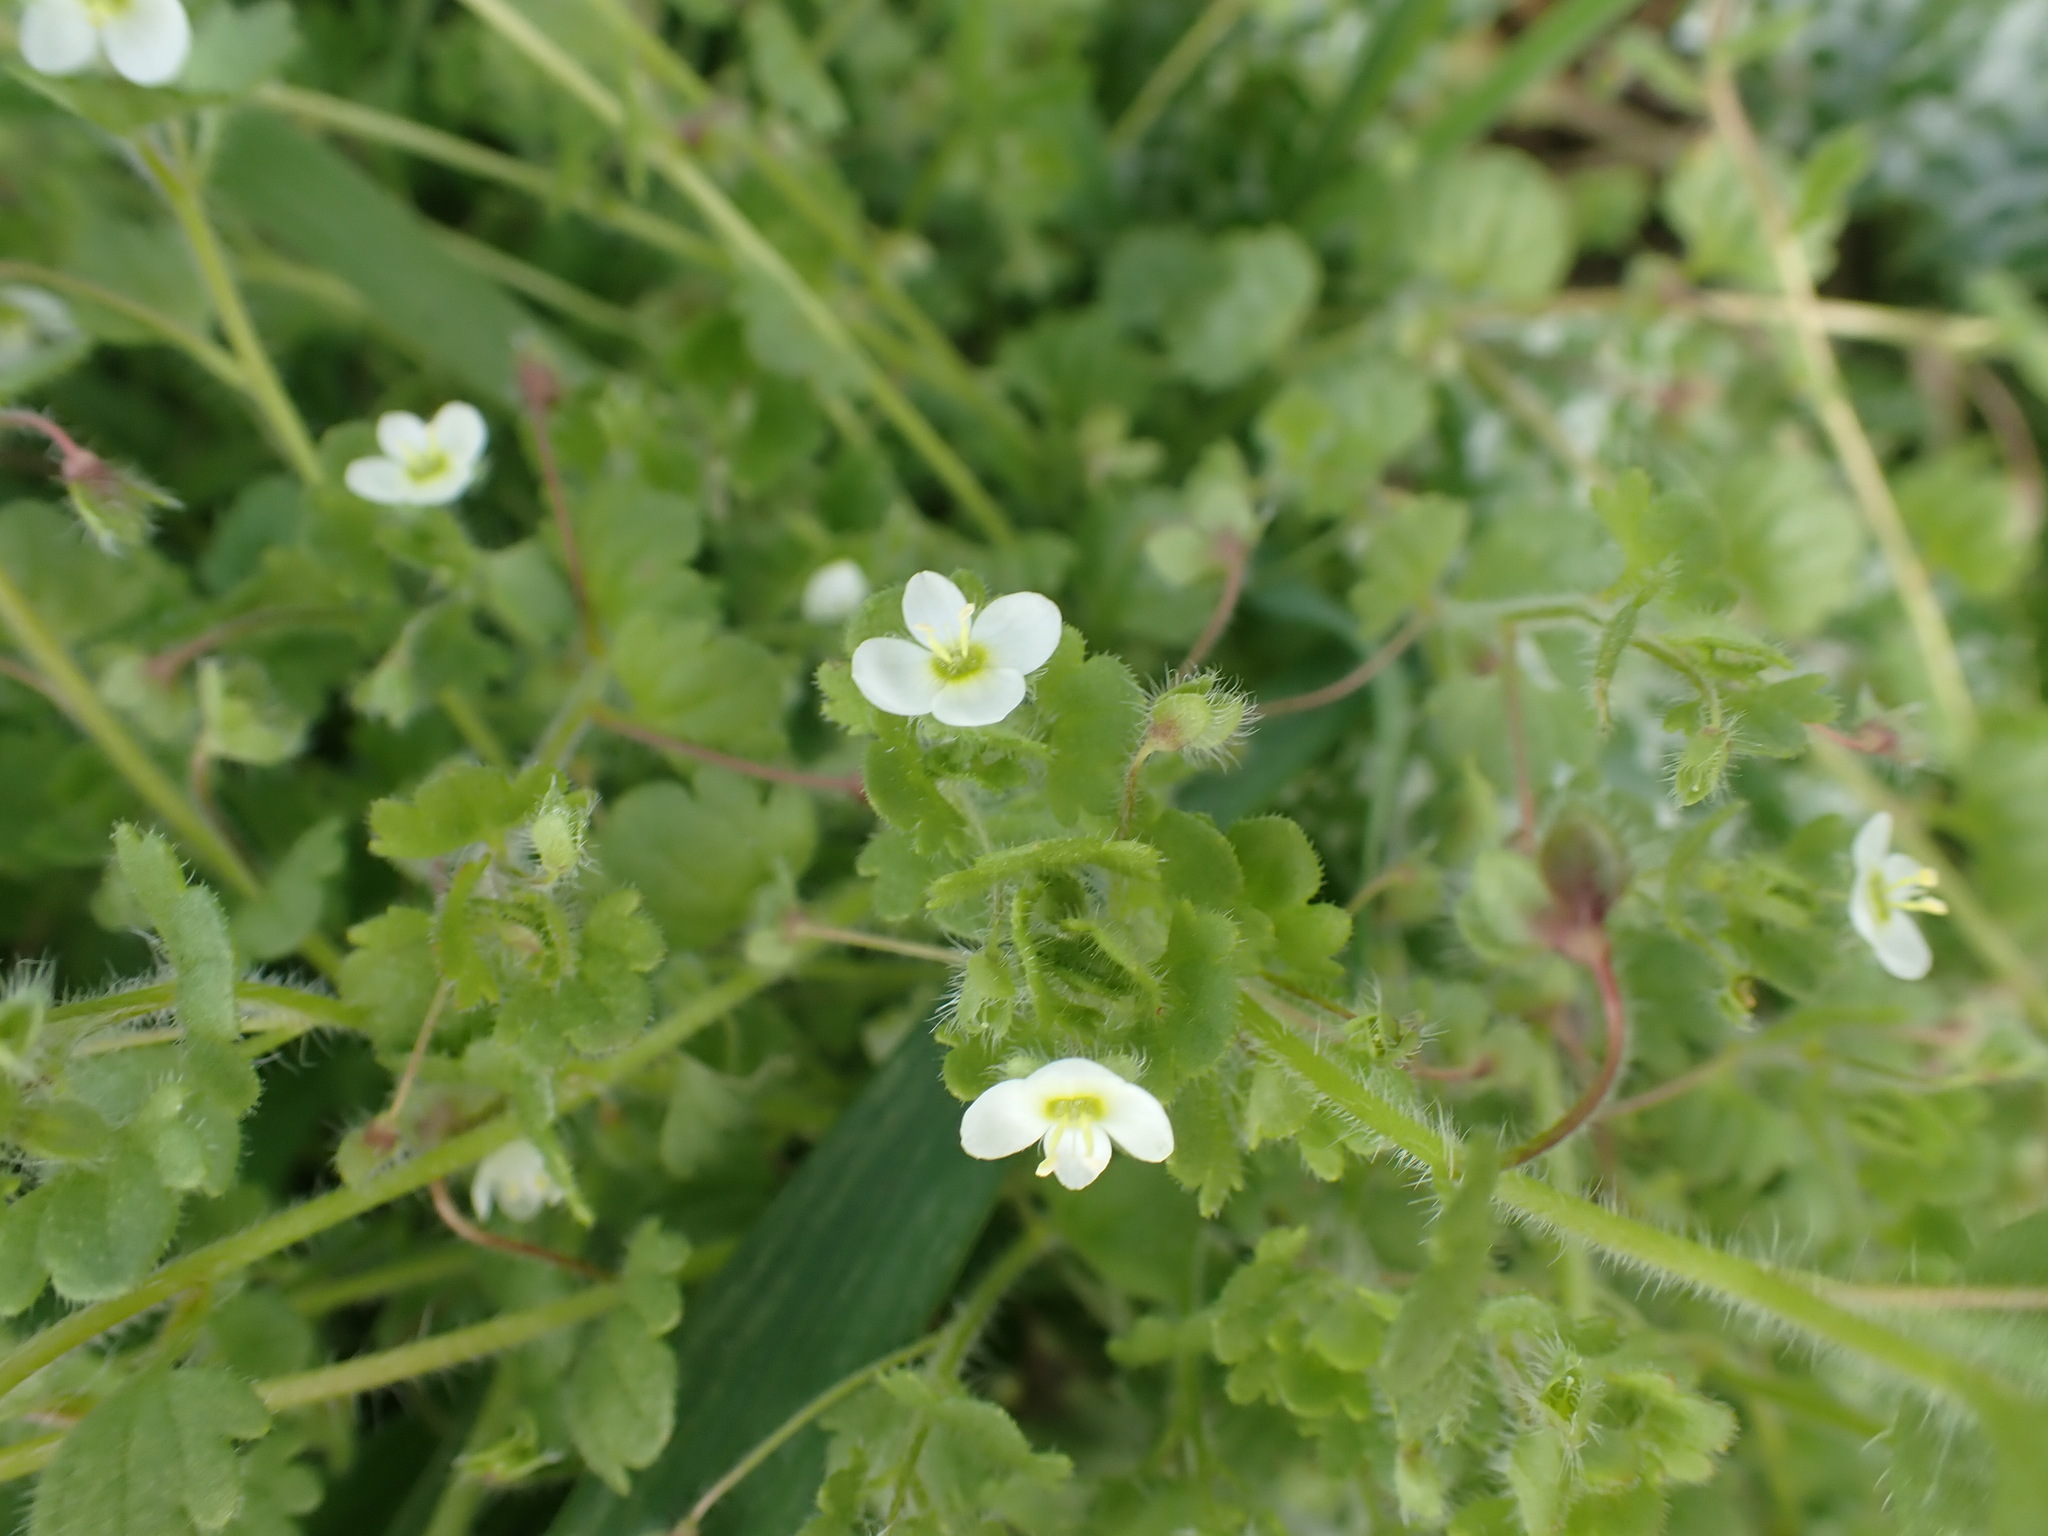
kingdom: Plantae
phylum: Tracheophyta
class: Magnoliopsida
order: Lamiales
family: Plantaginaceae
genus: Veronica
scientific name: Veronica cymbalaria
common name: Pale speedwell
